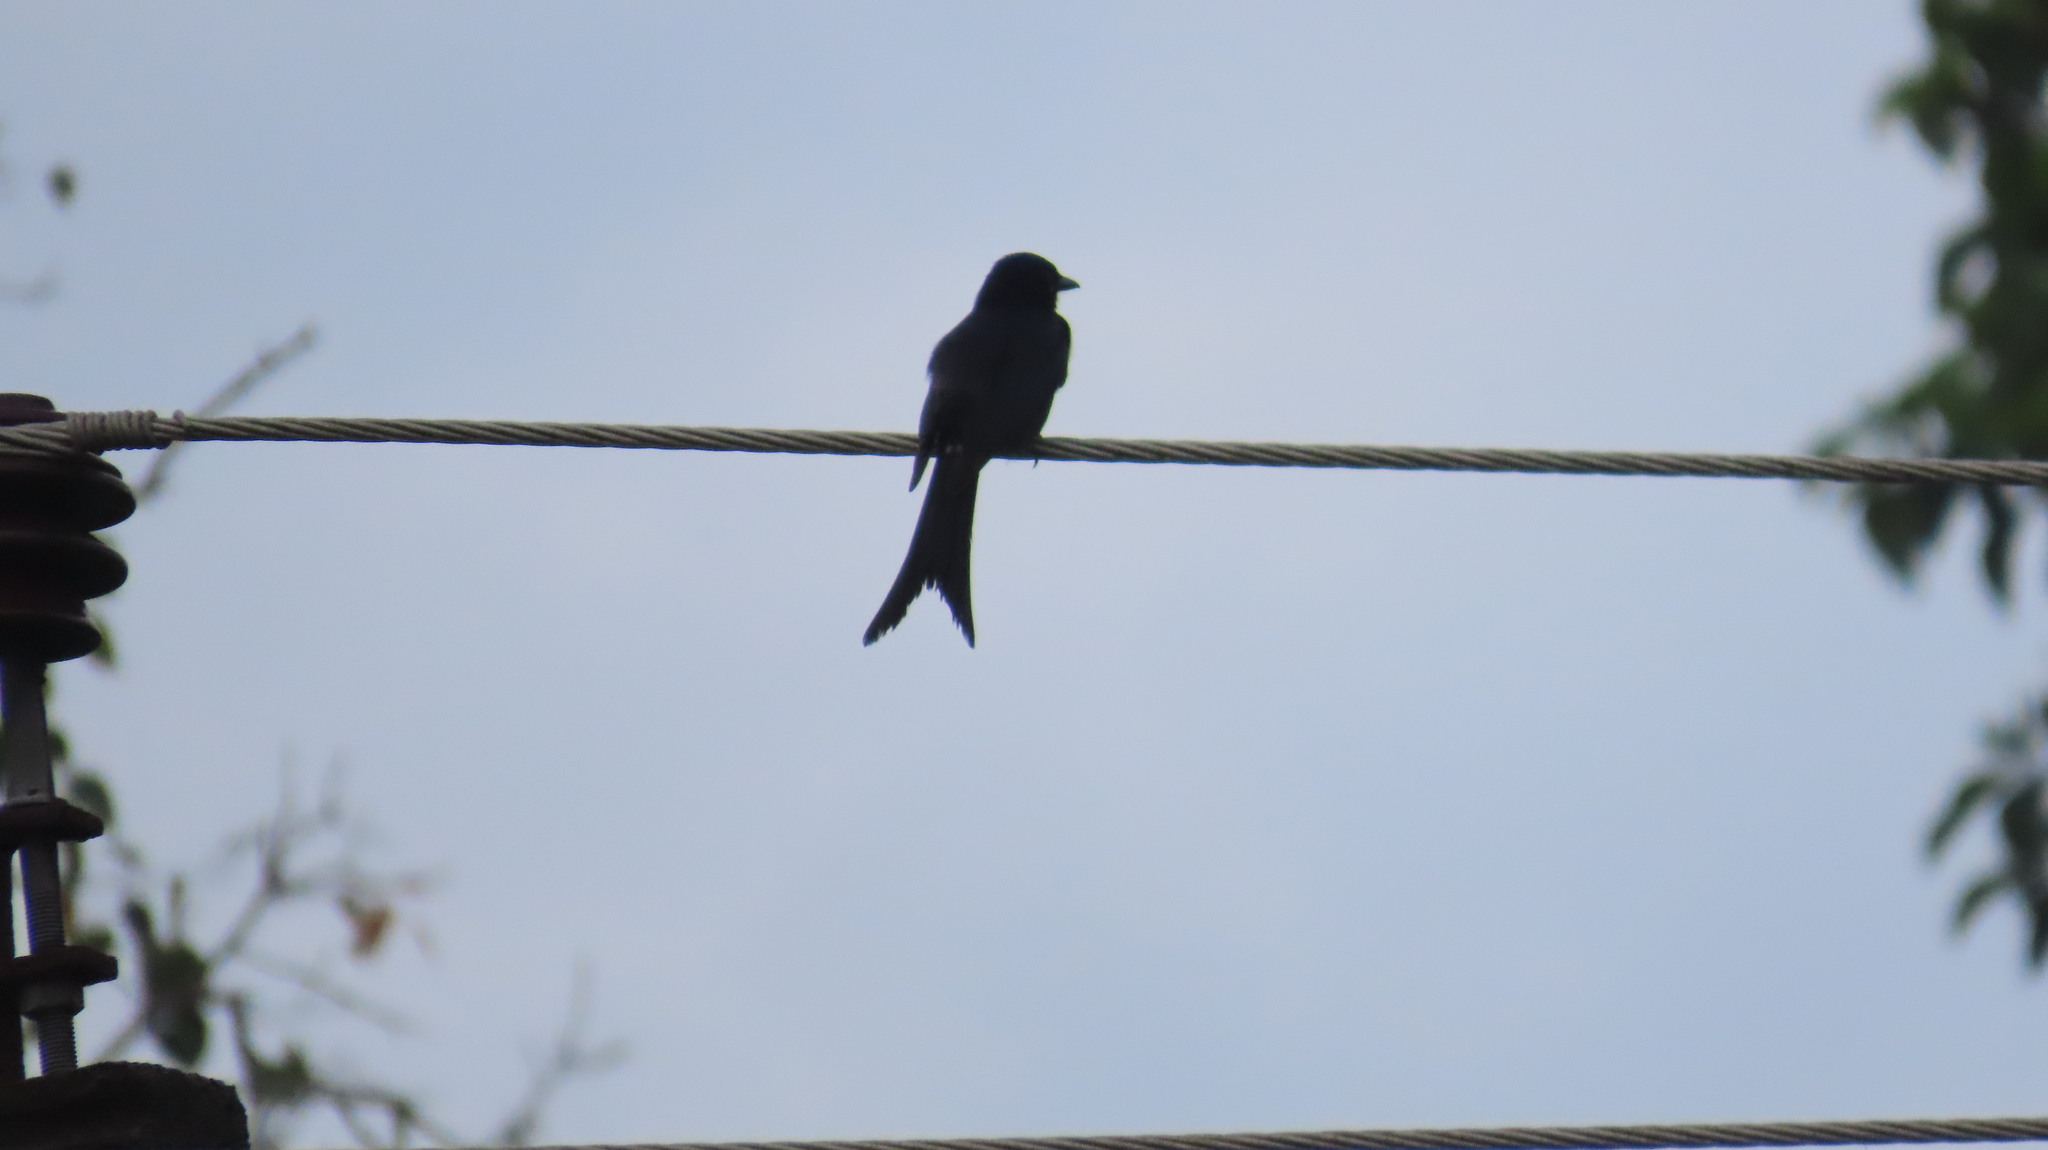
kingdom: Animalia
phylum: Chordata
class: Aves
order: Passeriformes
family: Dicruridae
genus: Dicrurus
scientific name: Dicrurus macrocercus
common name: Black drongo
